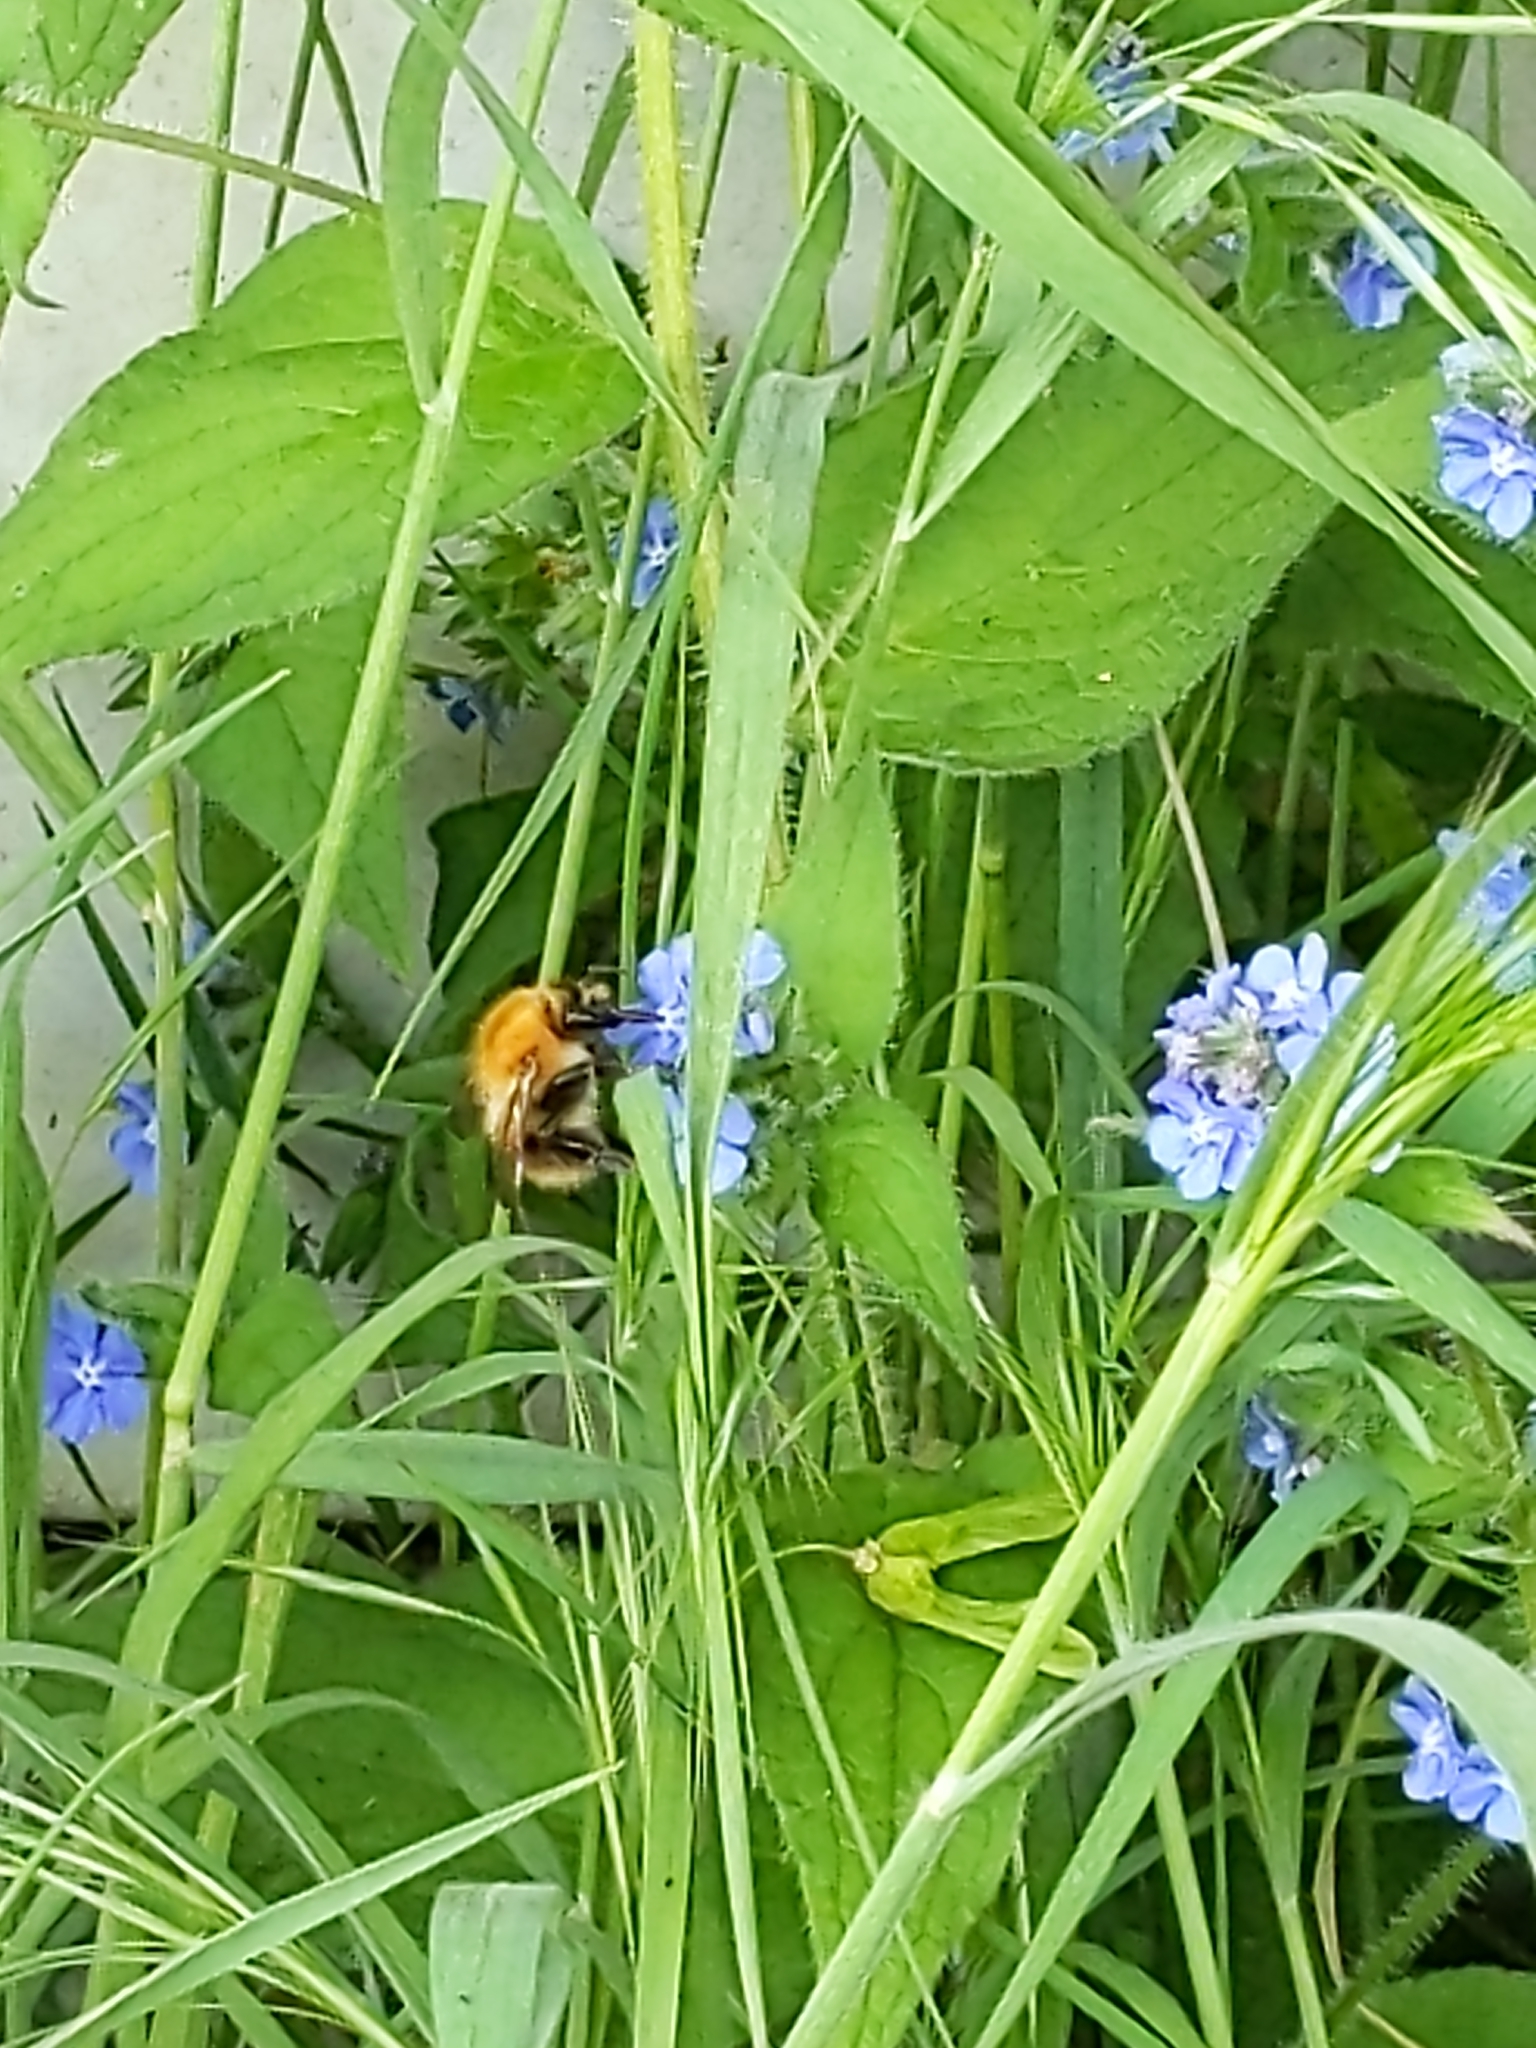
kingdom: Animalia
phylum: Arthropoda
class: Insecta
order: Hymenoptera
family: Apidae
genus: Bombus
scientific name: Bombus pascuorum
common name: Common carder bee
